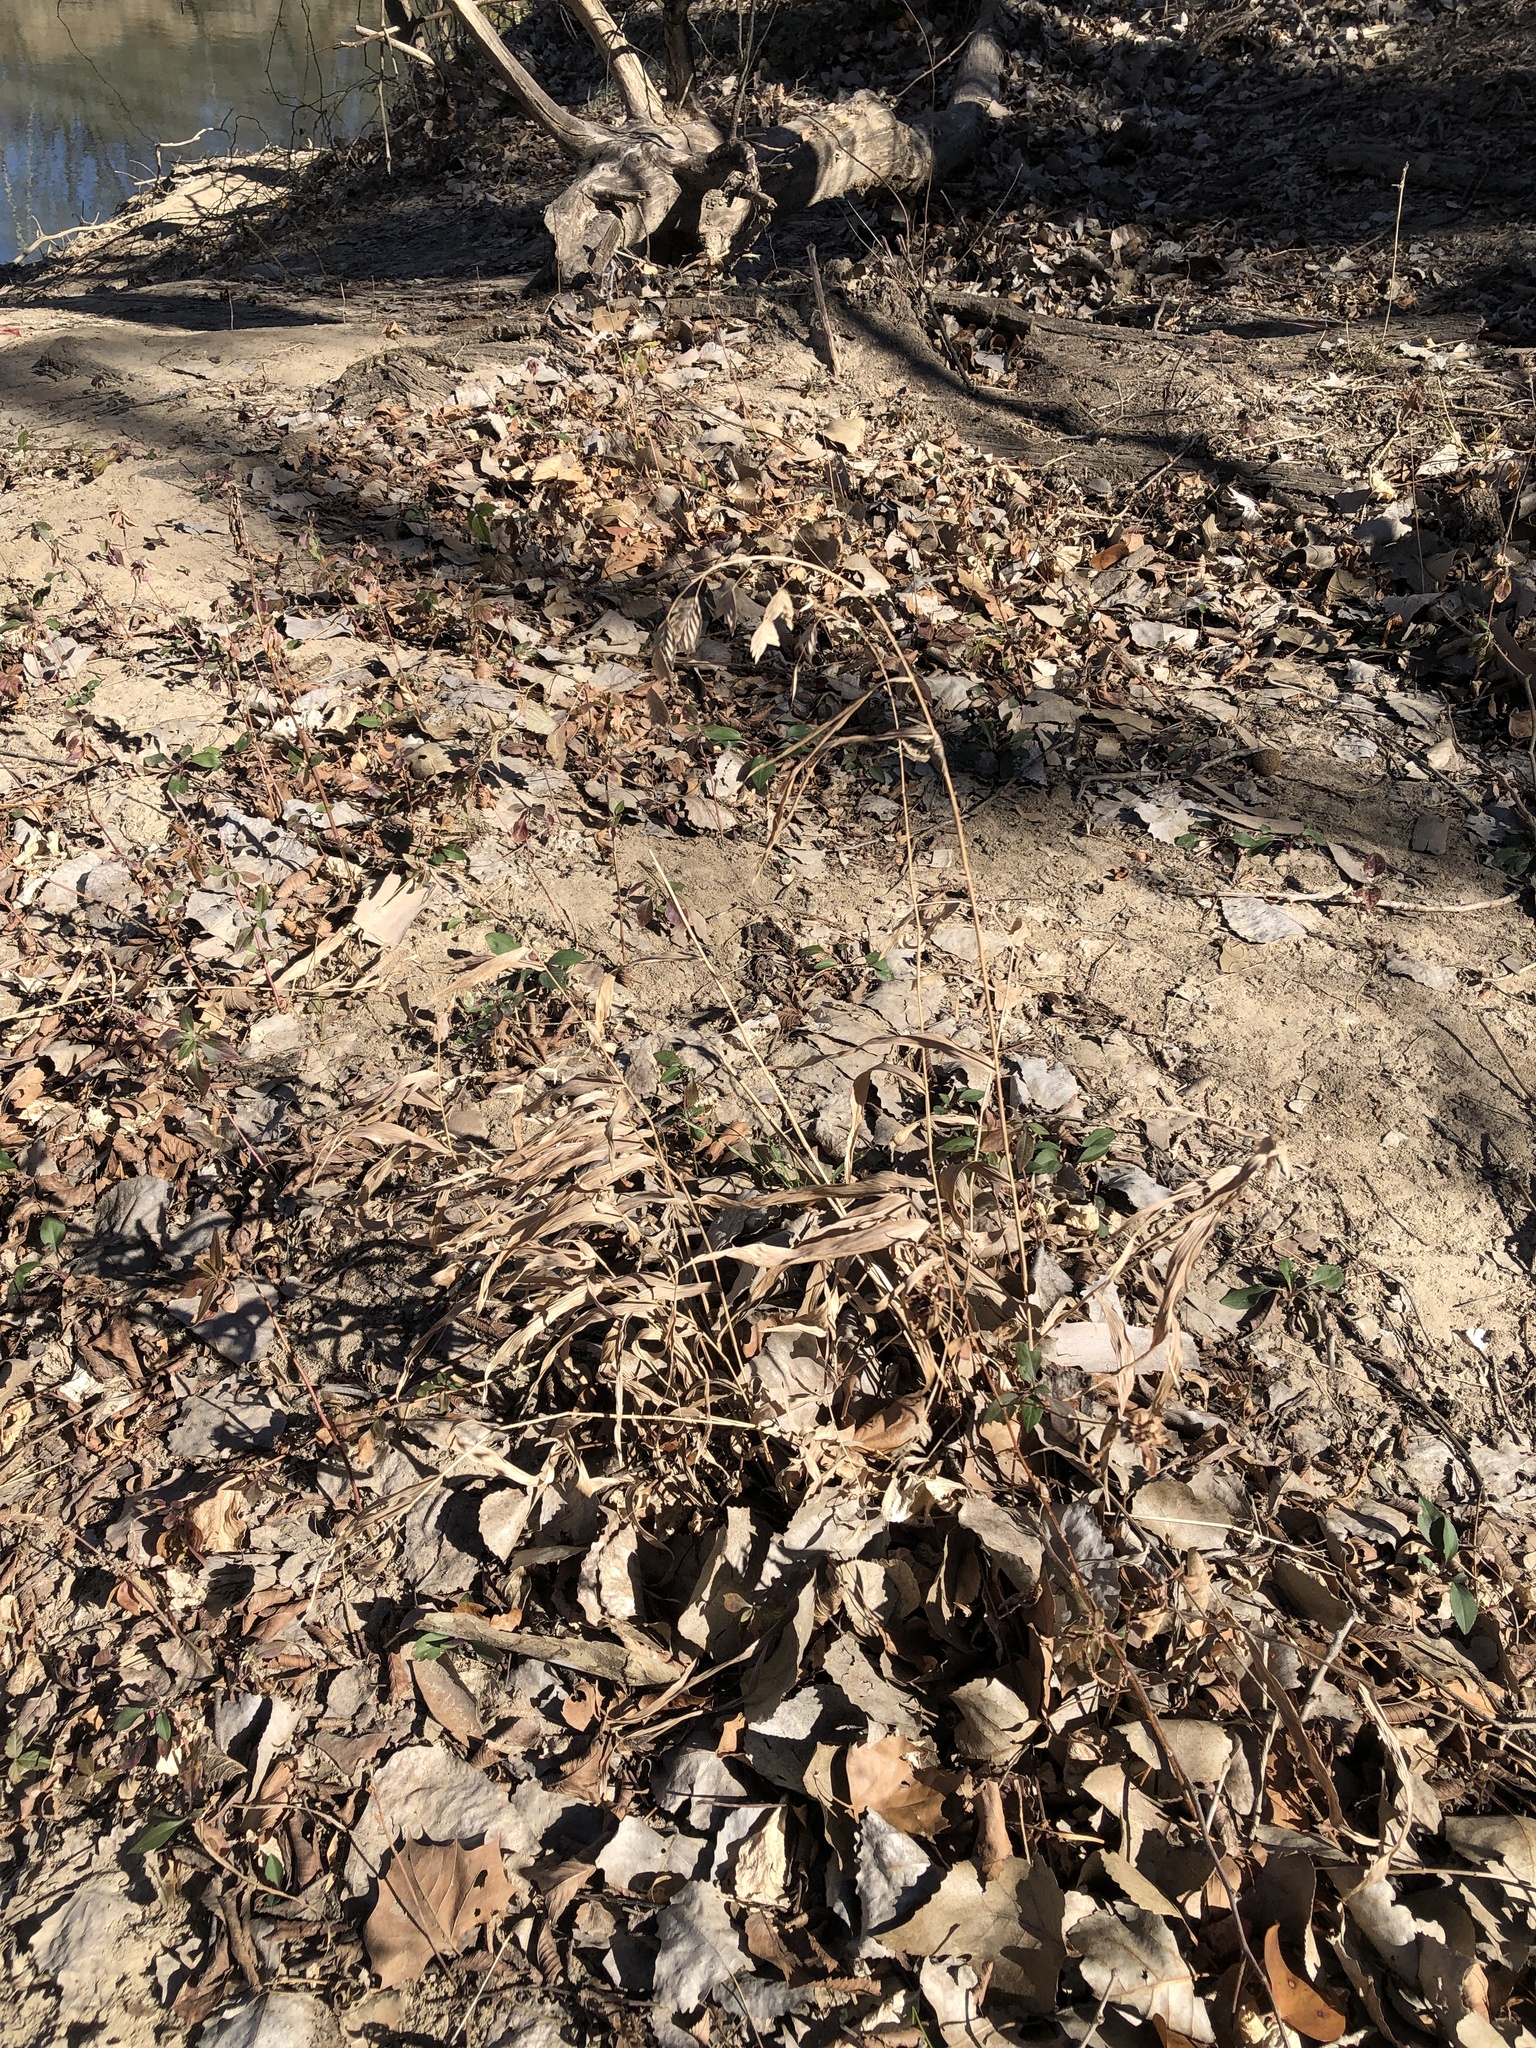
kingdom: Plantae
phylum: Tracheophyta
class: Liliopsida
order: Poales
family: Poaceae
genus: Chasmanthium
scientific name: Chasmanthium latifolium
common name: Broad-leaved chasmanthium
